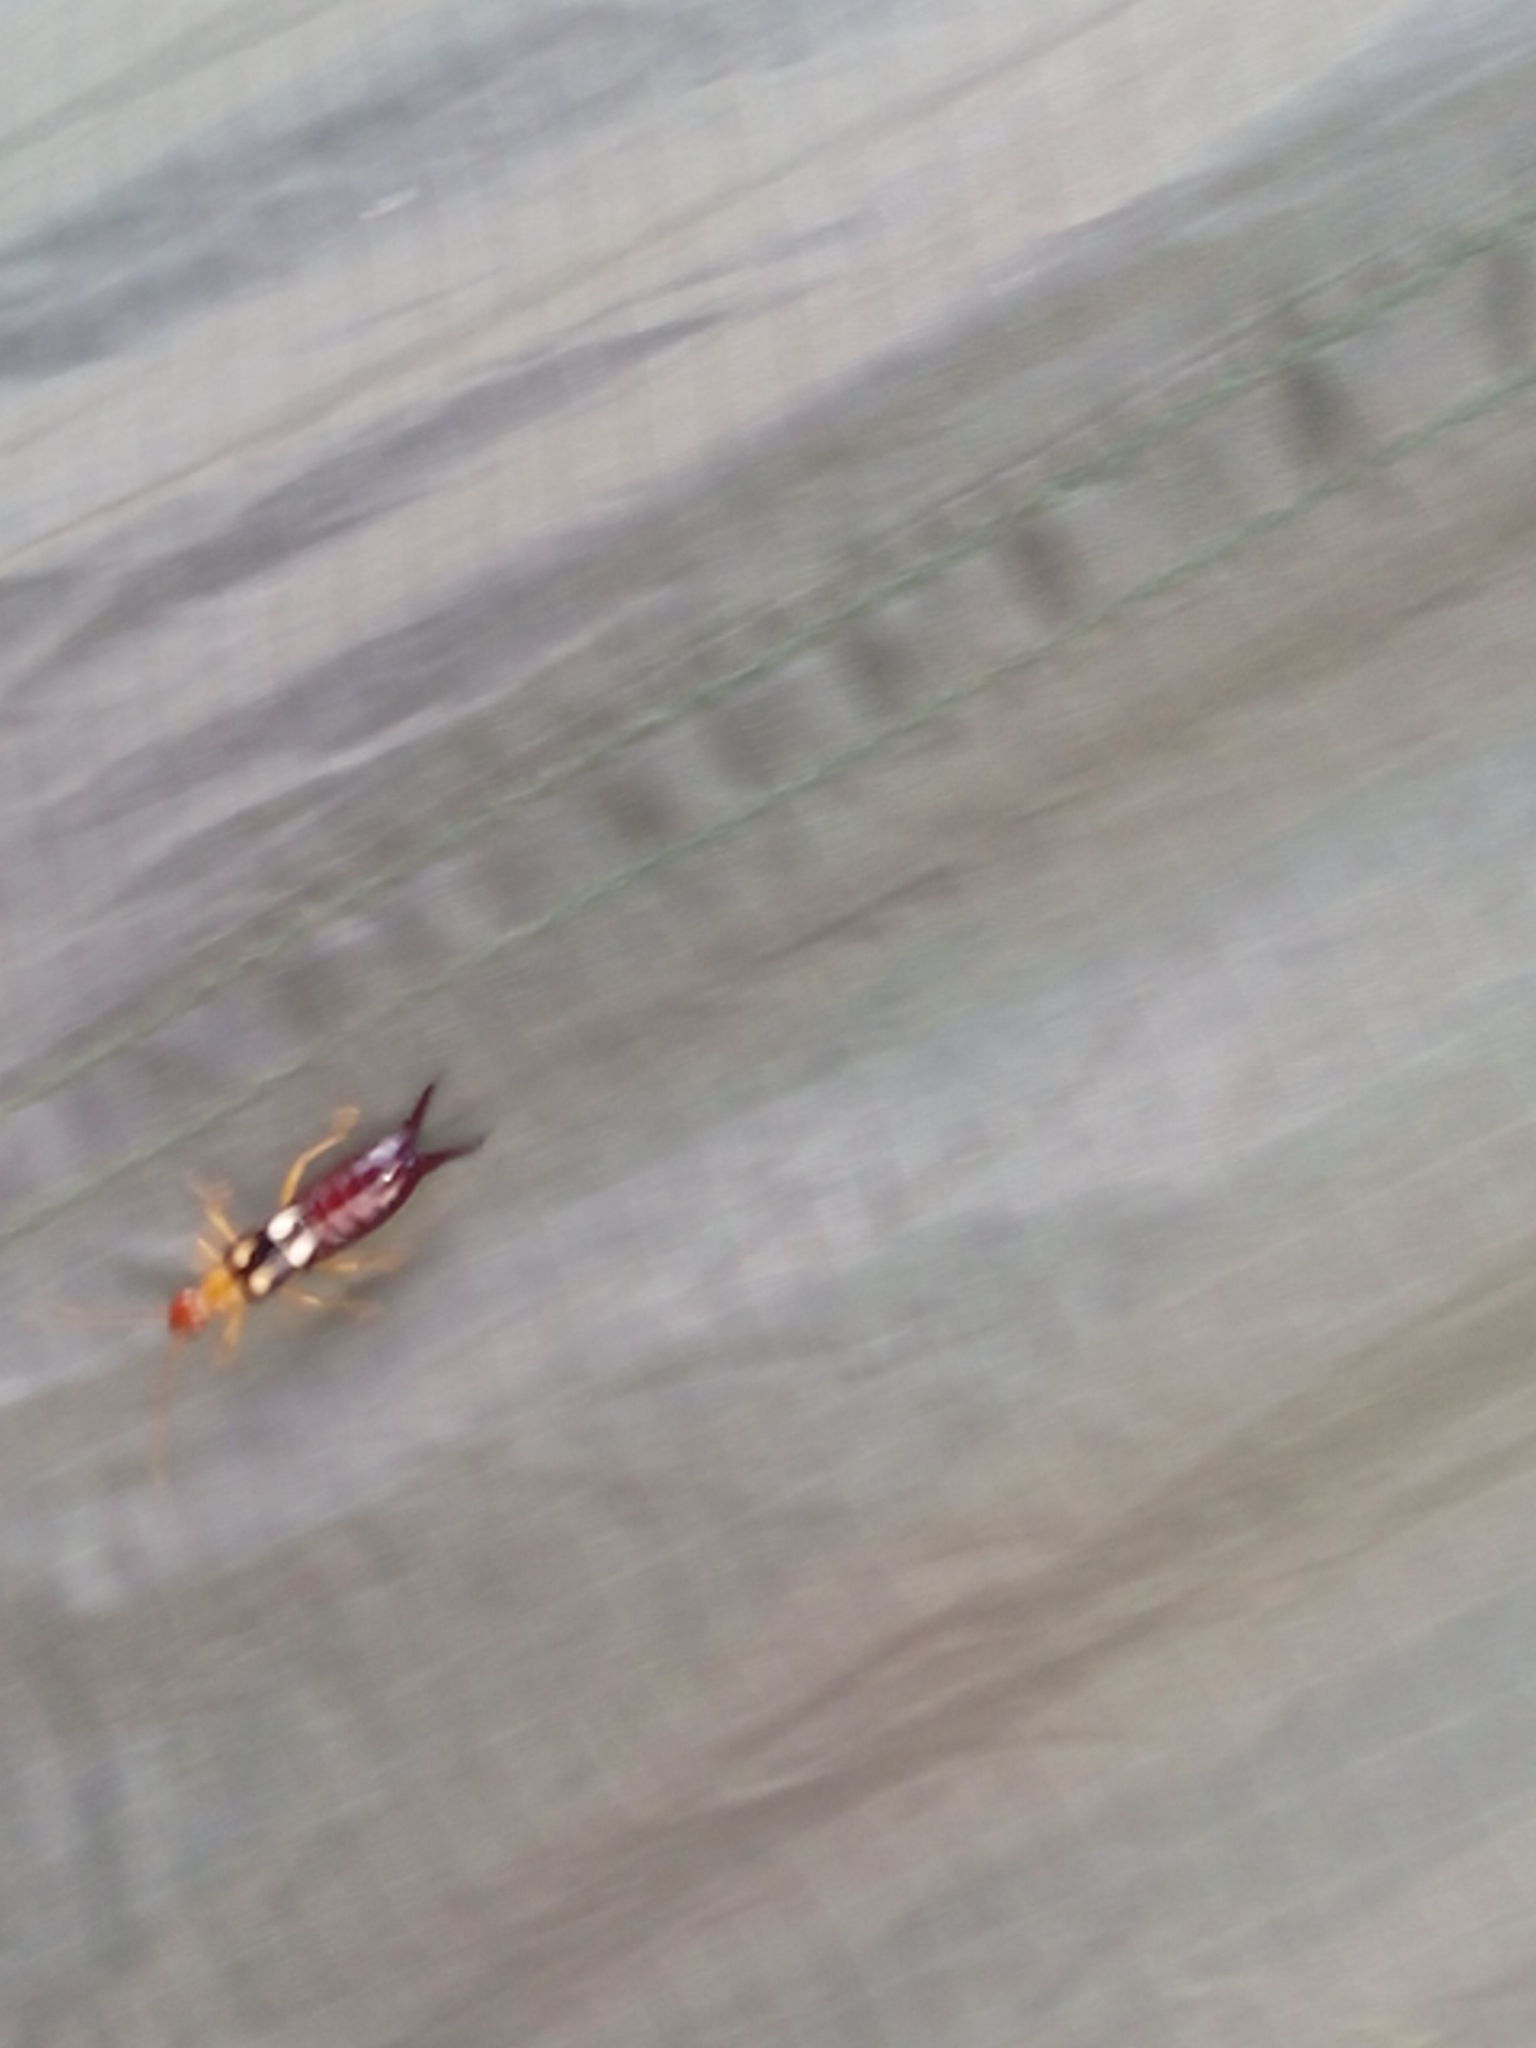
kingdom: Animalia
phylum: Arthropoda
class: Insecta
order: Dermaptera
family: Forficulidae
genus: Forficula
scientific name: Forficula smyrnensis
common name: Smyrna earwig
